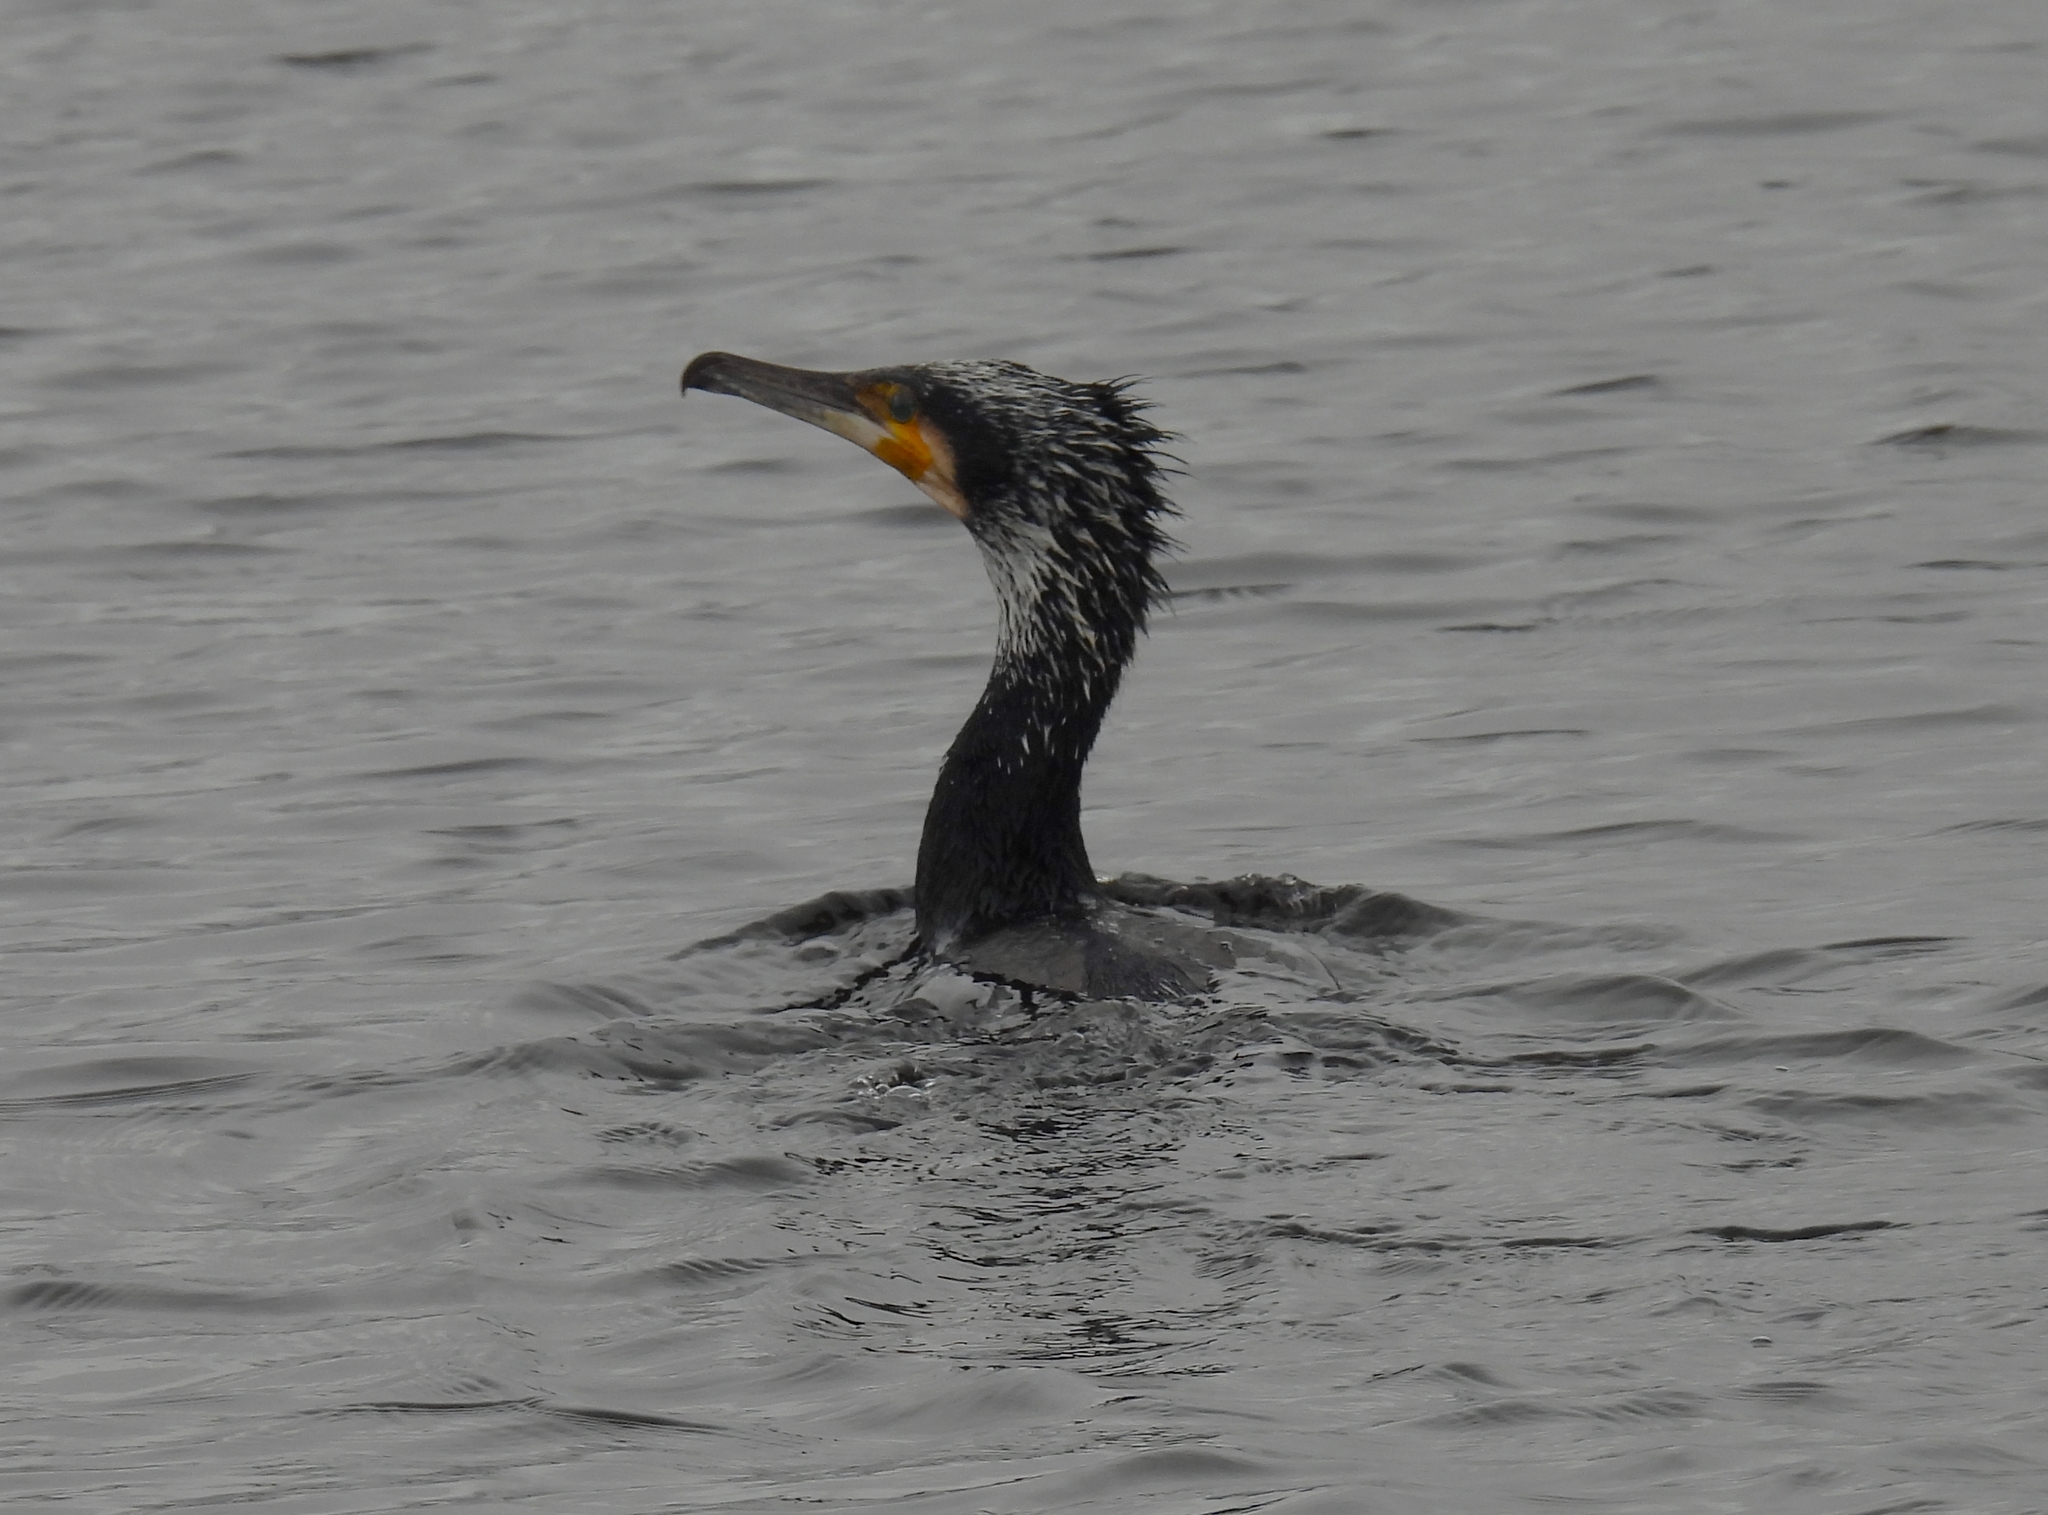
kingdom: Animalia
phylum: Chordata
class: Aves
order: Suliformes
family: Phalacrocoracidae
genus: Phalacrocorax
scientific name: Phalacrocorax carbo
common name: Great cormorant
